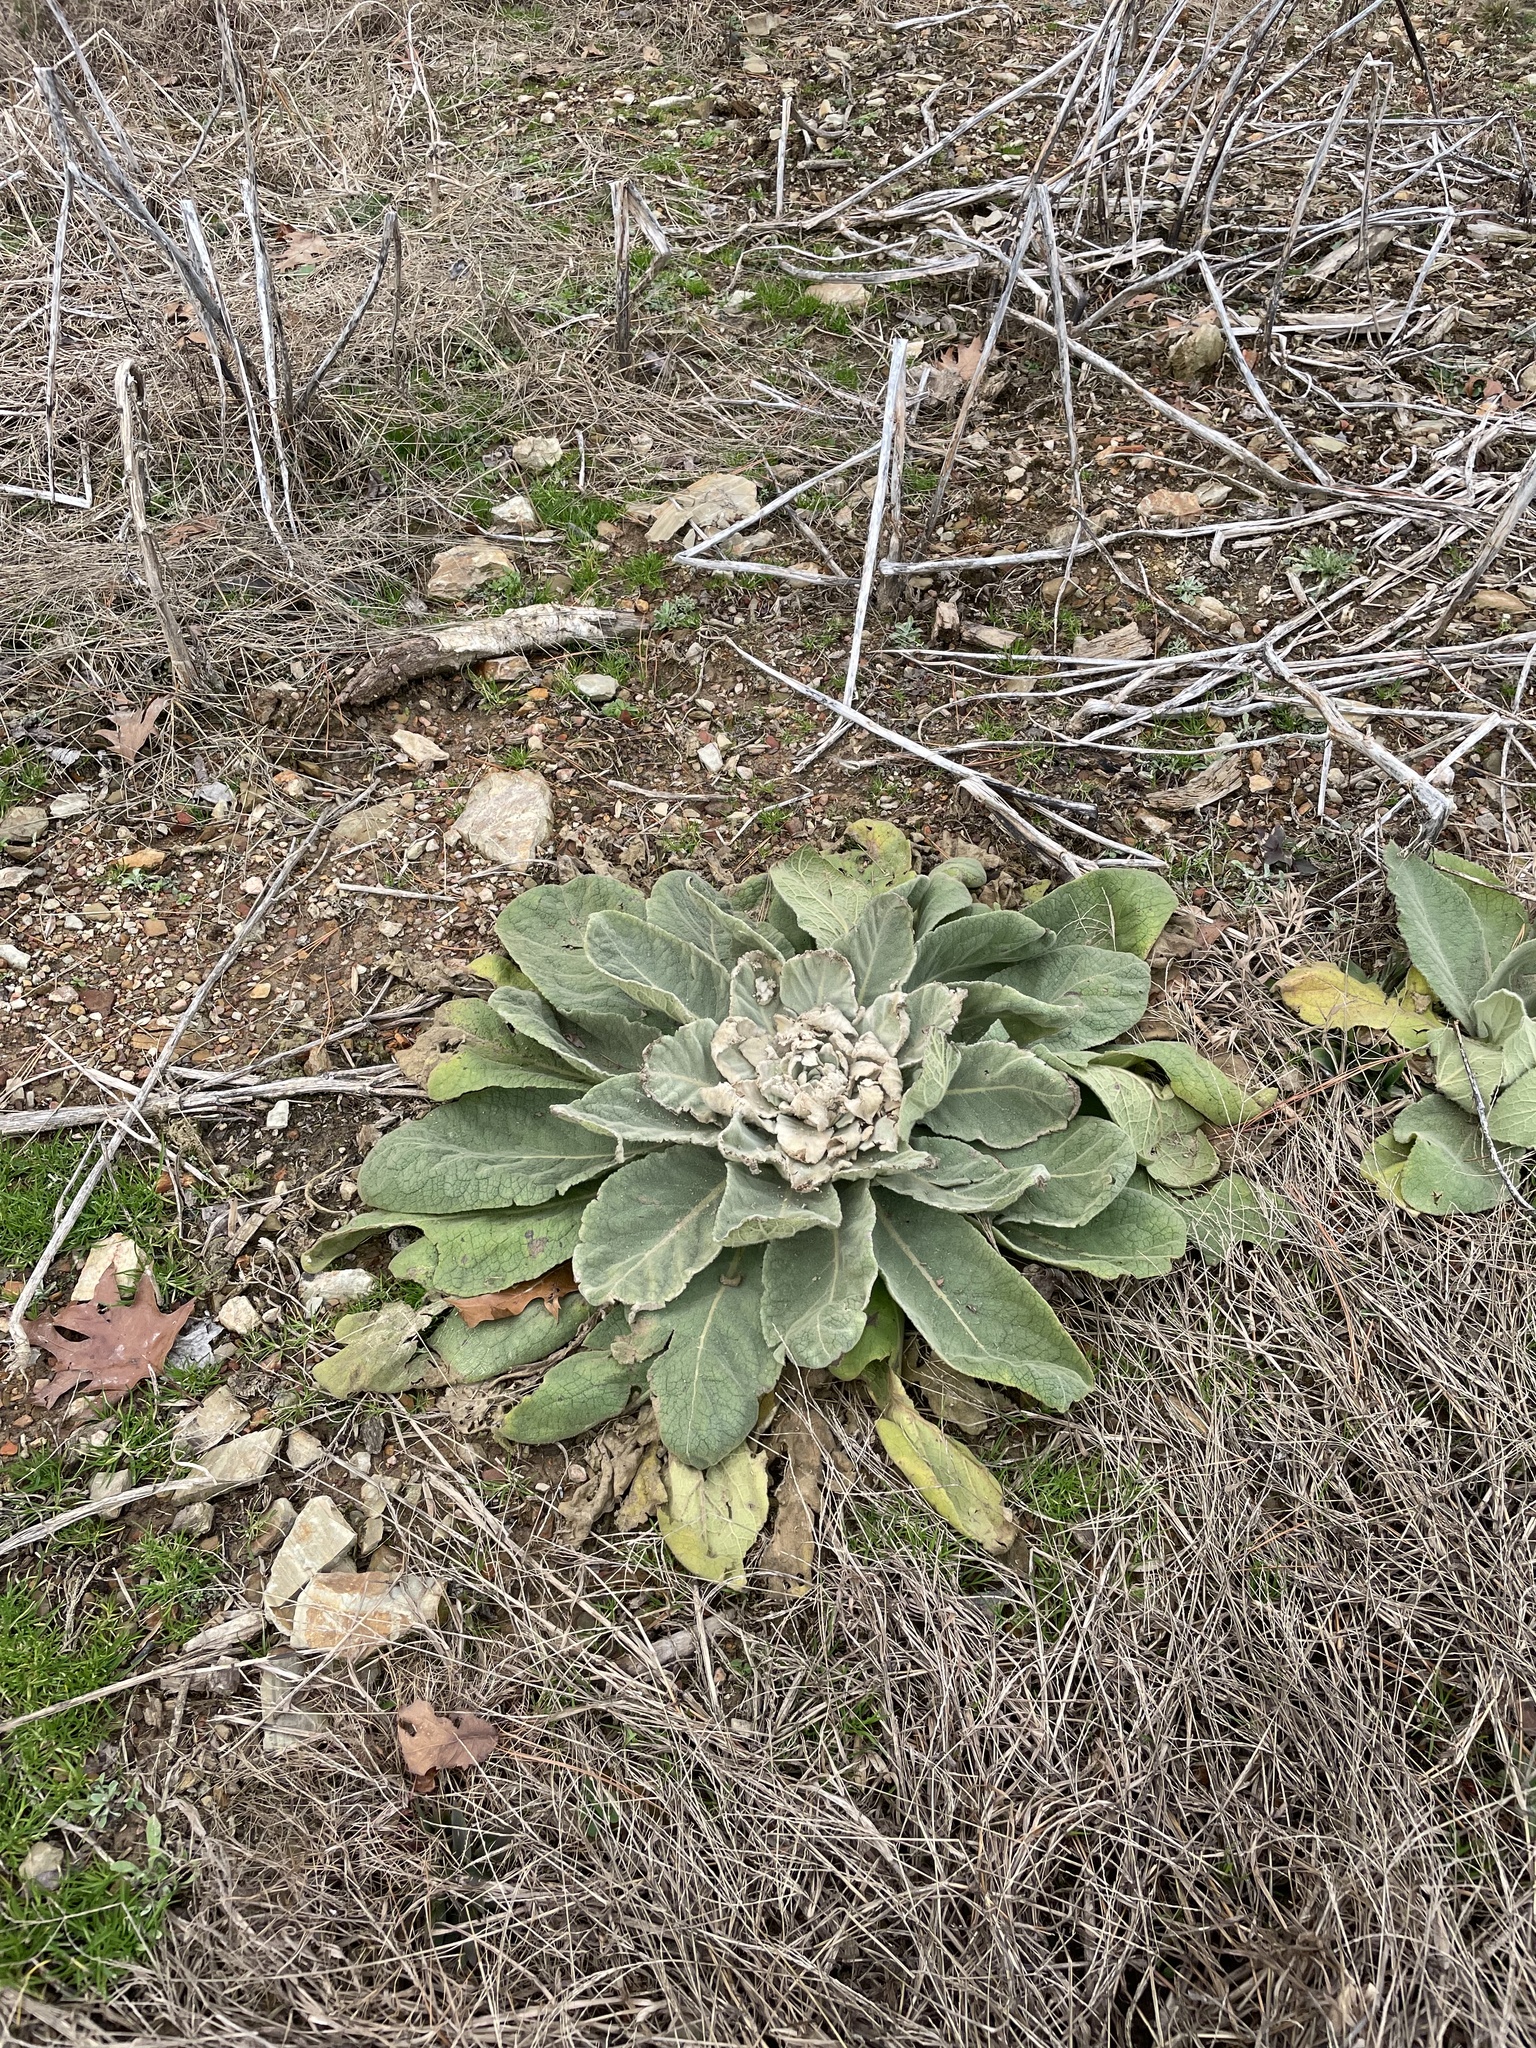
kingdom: Plantae
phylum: Tracheophyta
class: Magnoliopsida
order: Lamiales
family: Scrophulariaceae
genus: Verbascum
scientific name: Verbascum thapsus
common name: Common mullein
